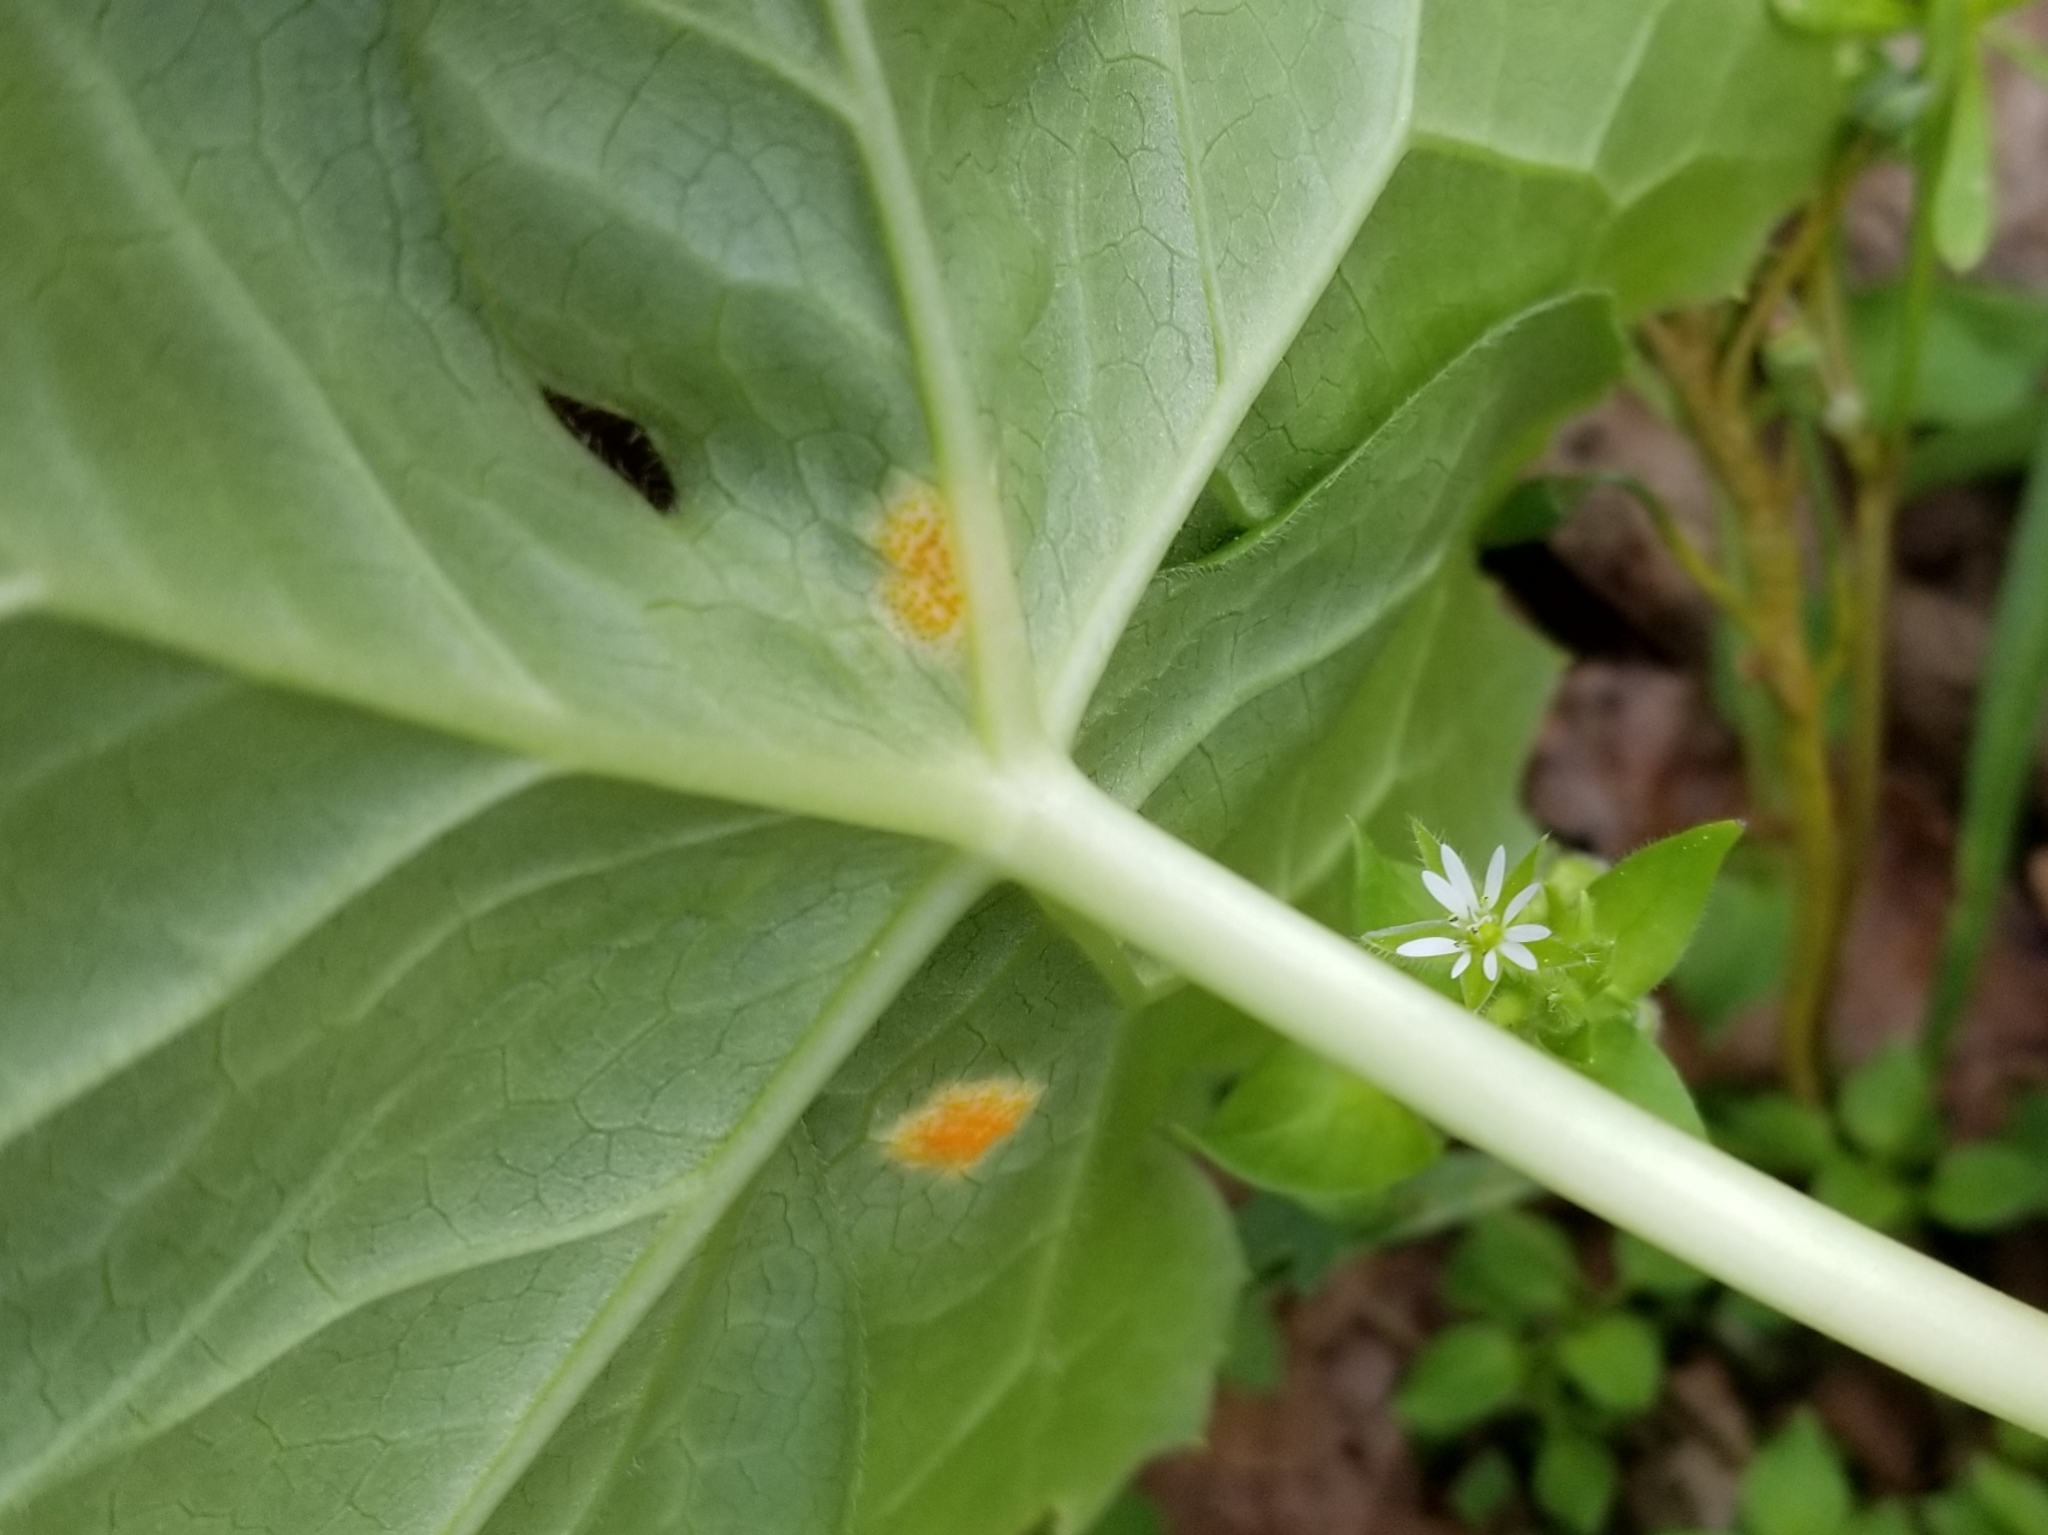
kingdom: Plantae
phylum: Tracheophyta
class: Magnoliopsida
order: Ranunculales
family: Berberidaceae
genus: Podophyllum
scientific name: Podophyllum peltatum
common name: Wild mandrake
